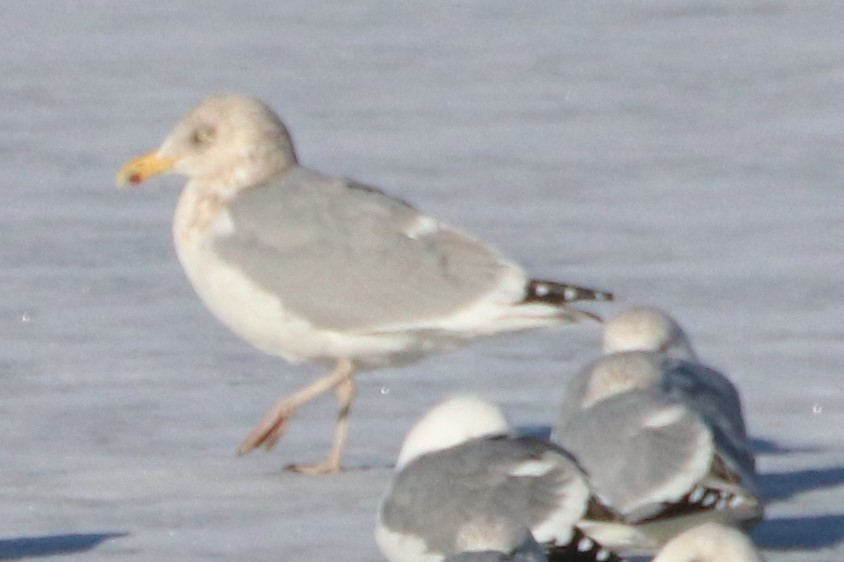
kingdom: Animalia
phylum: Chordata
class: Aves
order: Charadriiformes
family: Laridae
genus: Larus
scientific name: Larus argentatus
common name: Herring gull
